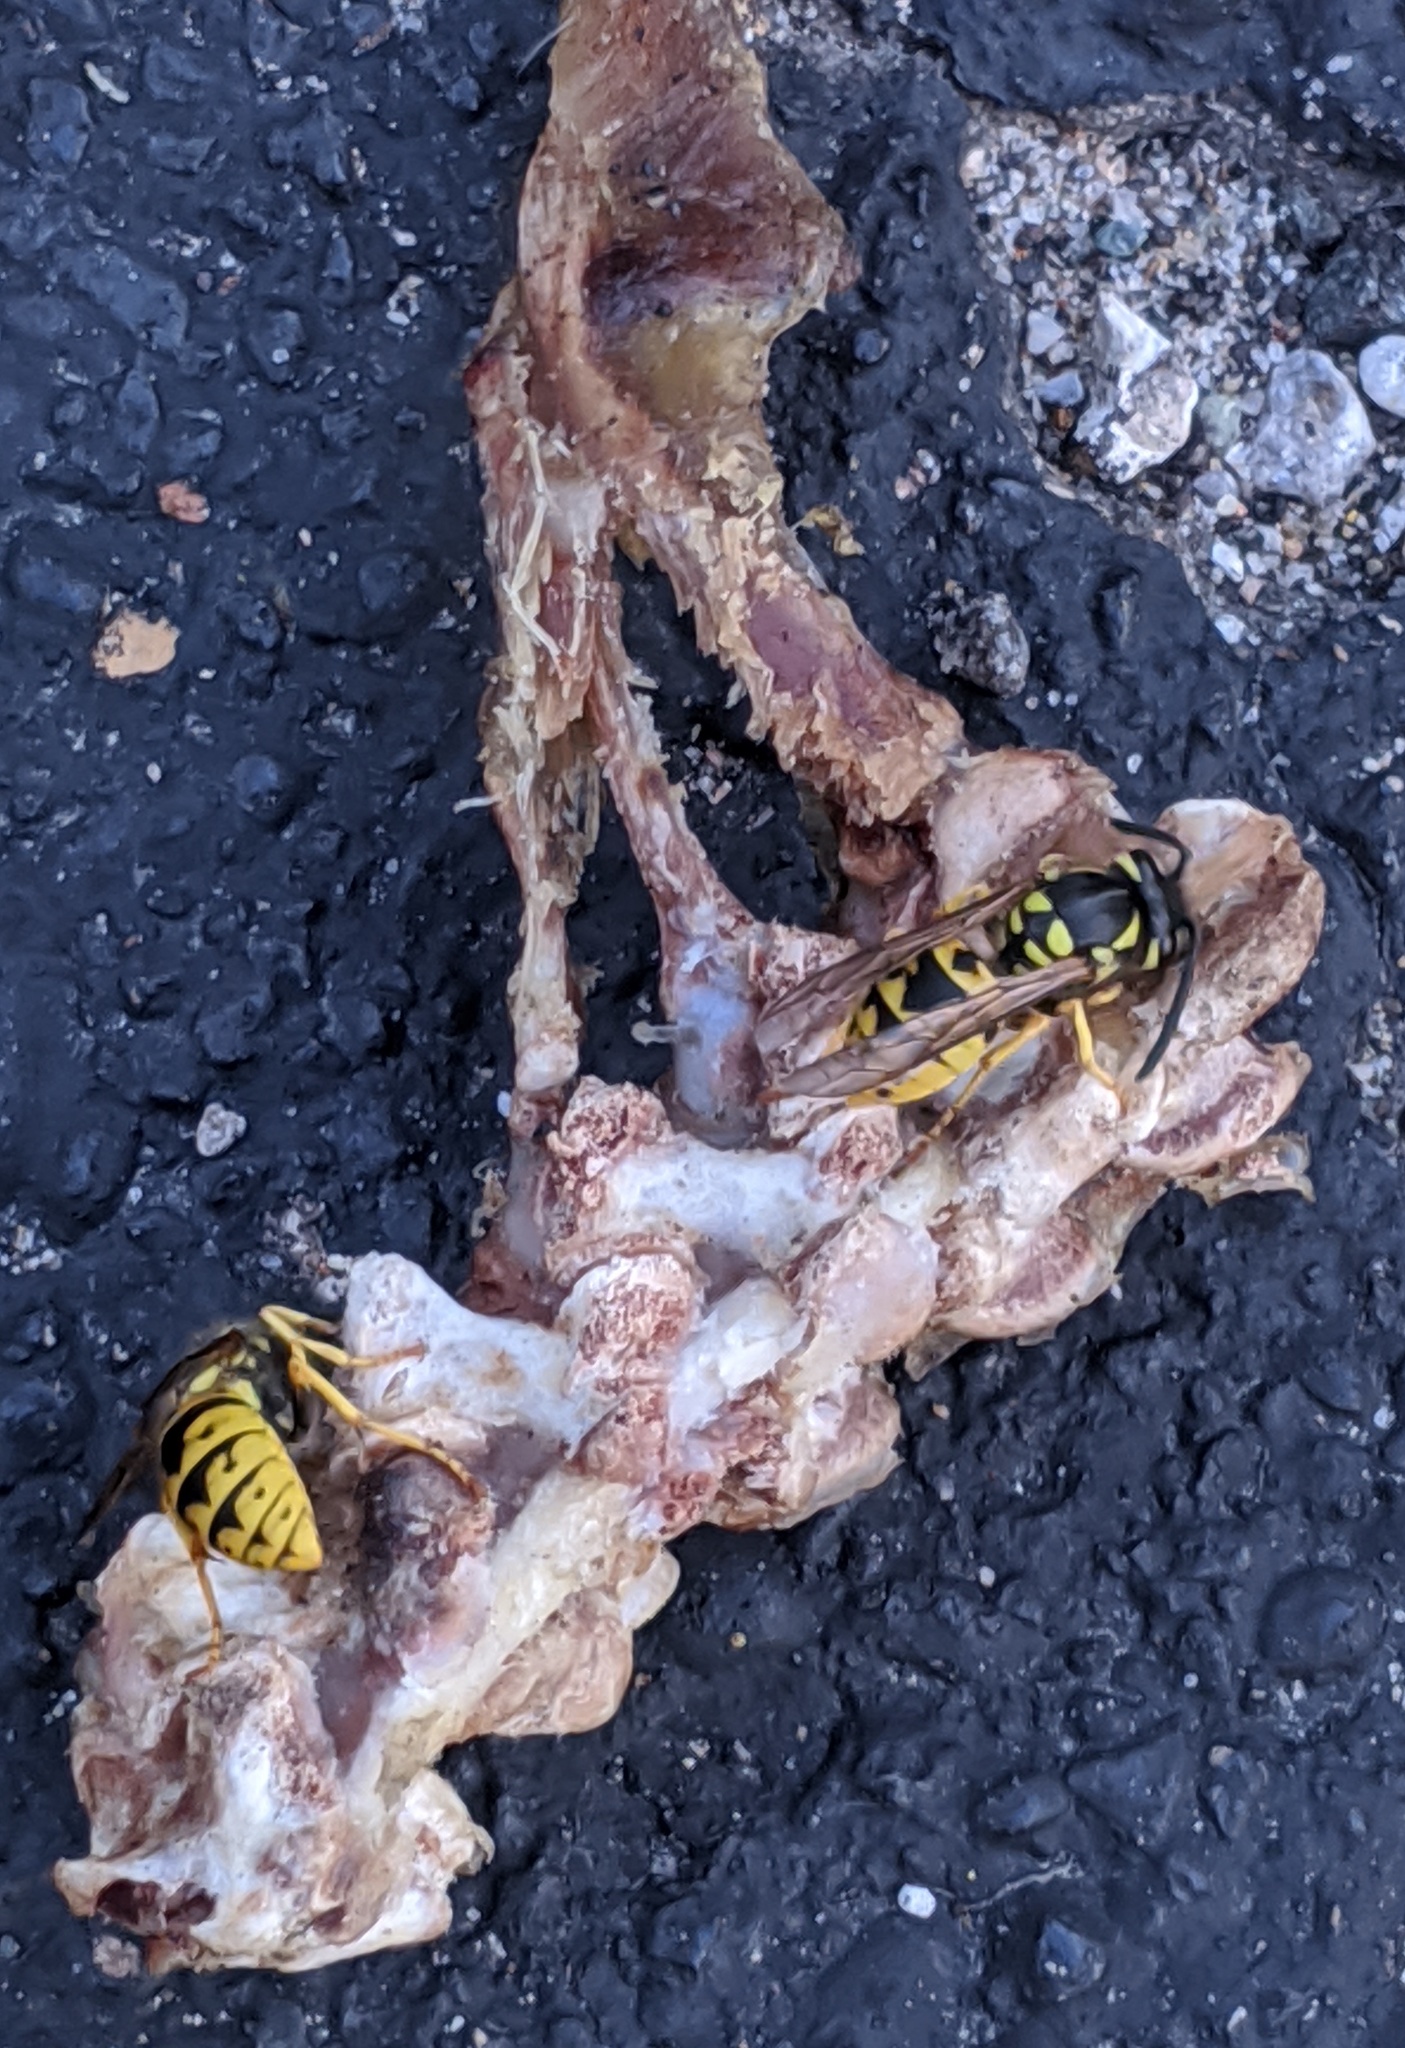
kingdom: Animalia
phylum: Arthropoda
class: Insecta
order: Hymenoptera
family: Vespidae
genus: Vespula
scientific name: Vespula germanica
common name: German wasp
